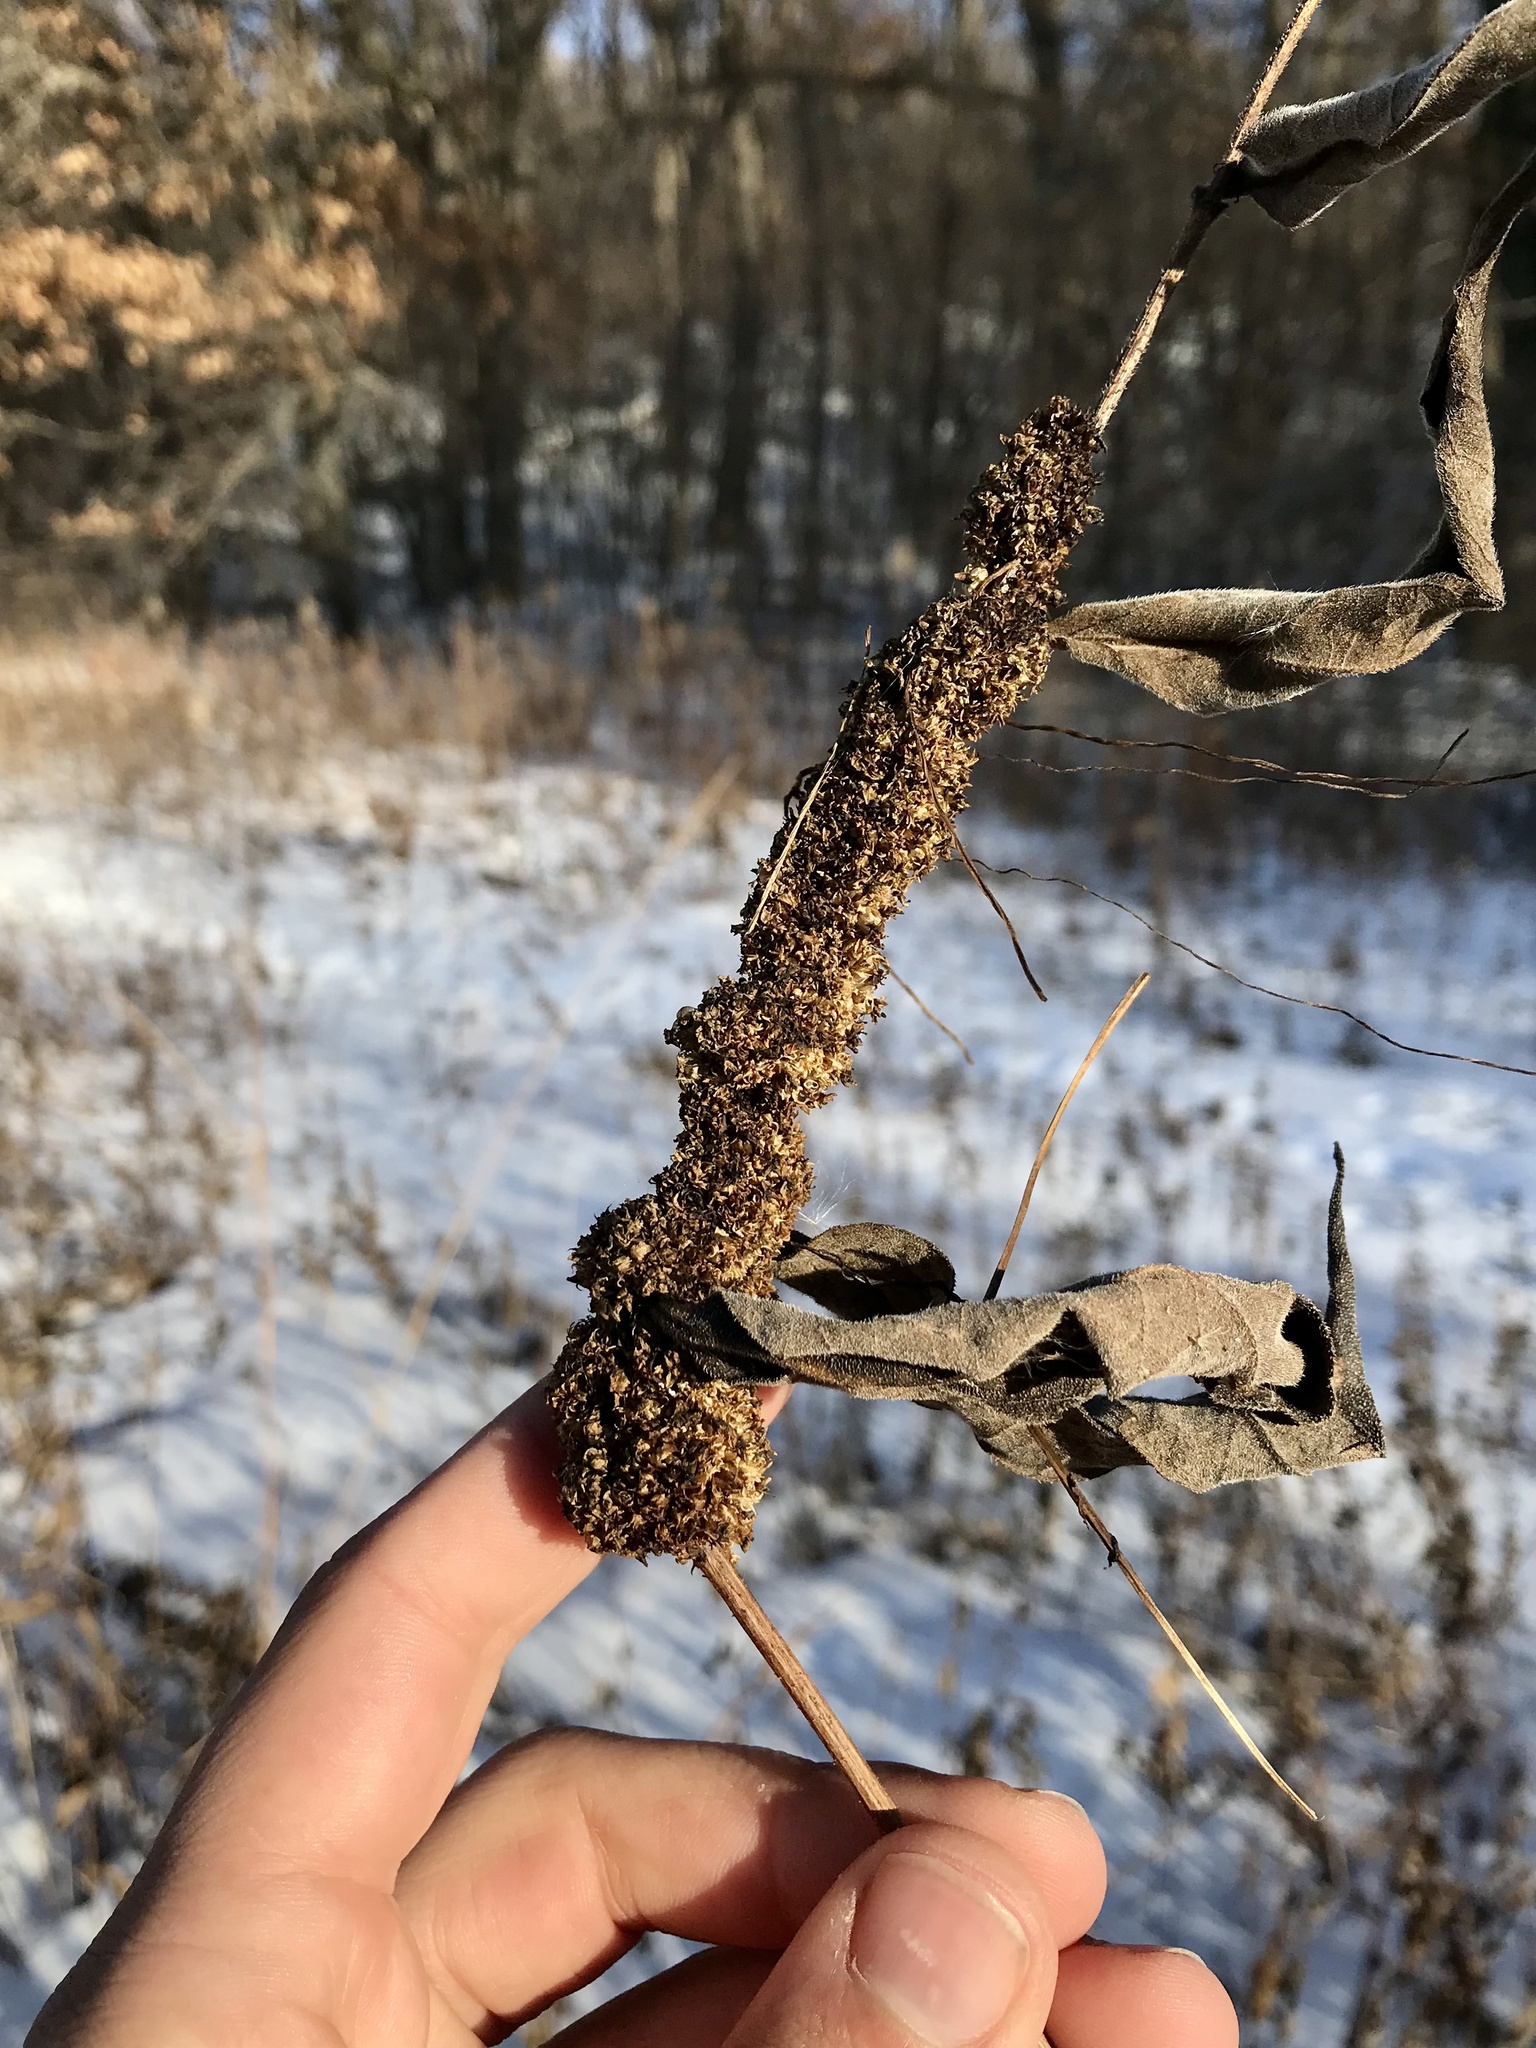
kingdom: Plantae
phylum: Tracheophyta
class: Magnoliopsida
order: Solanales
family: Convolvulaceae
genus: Cuscuta
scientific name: Cuscuta glomerata
